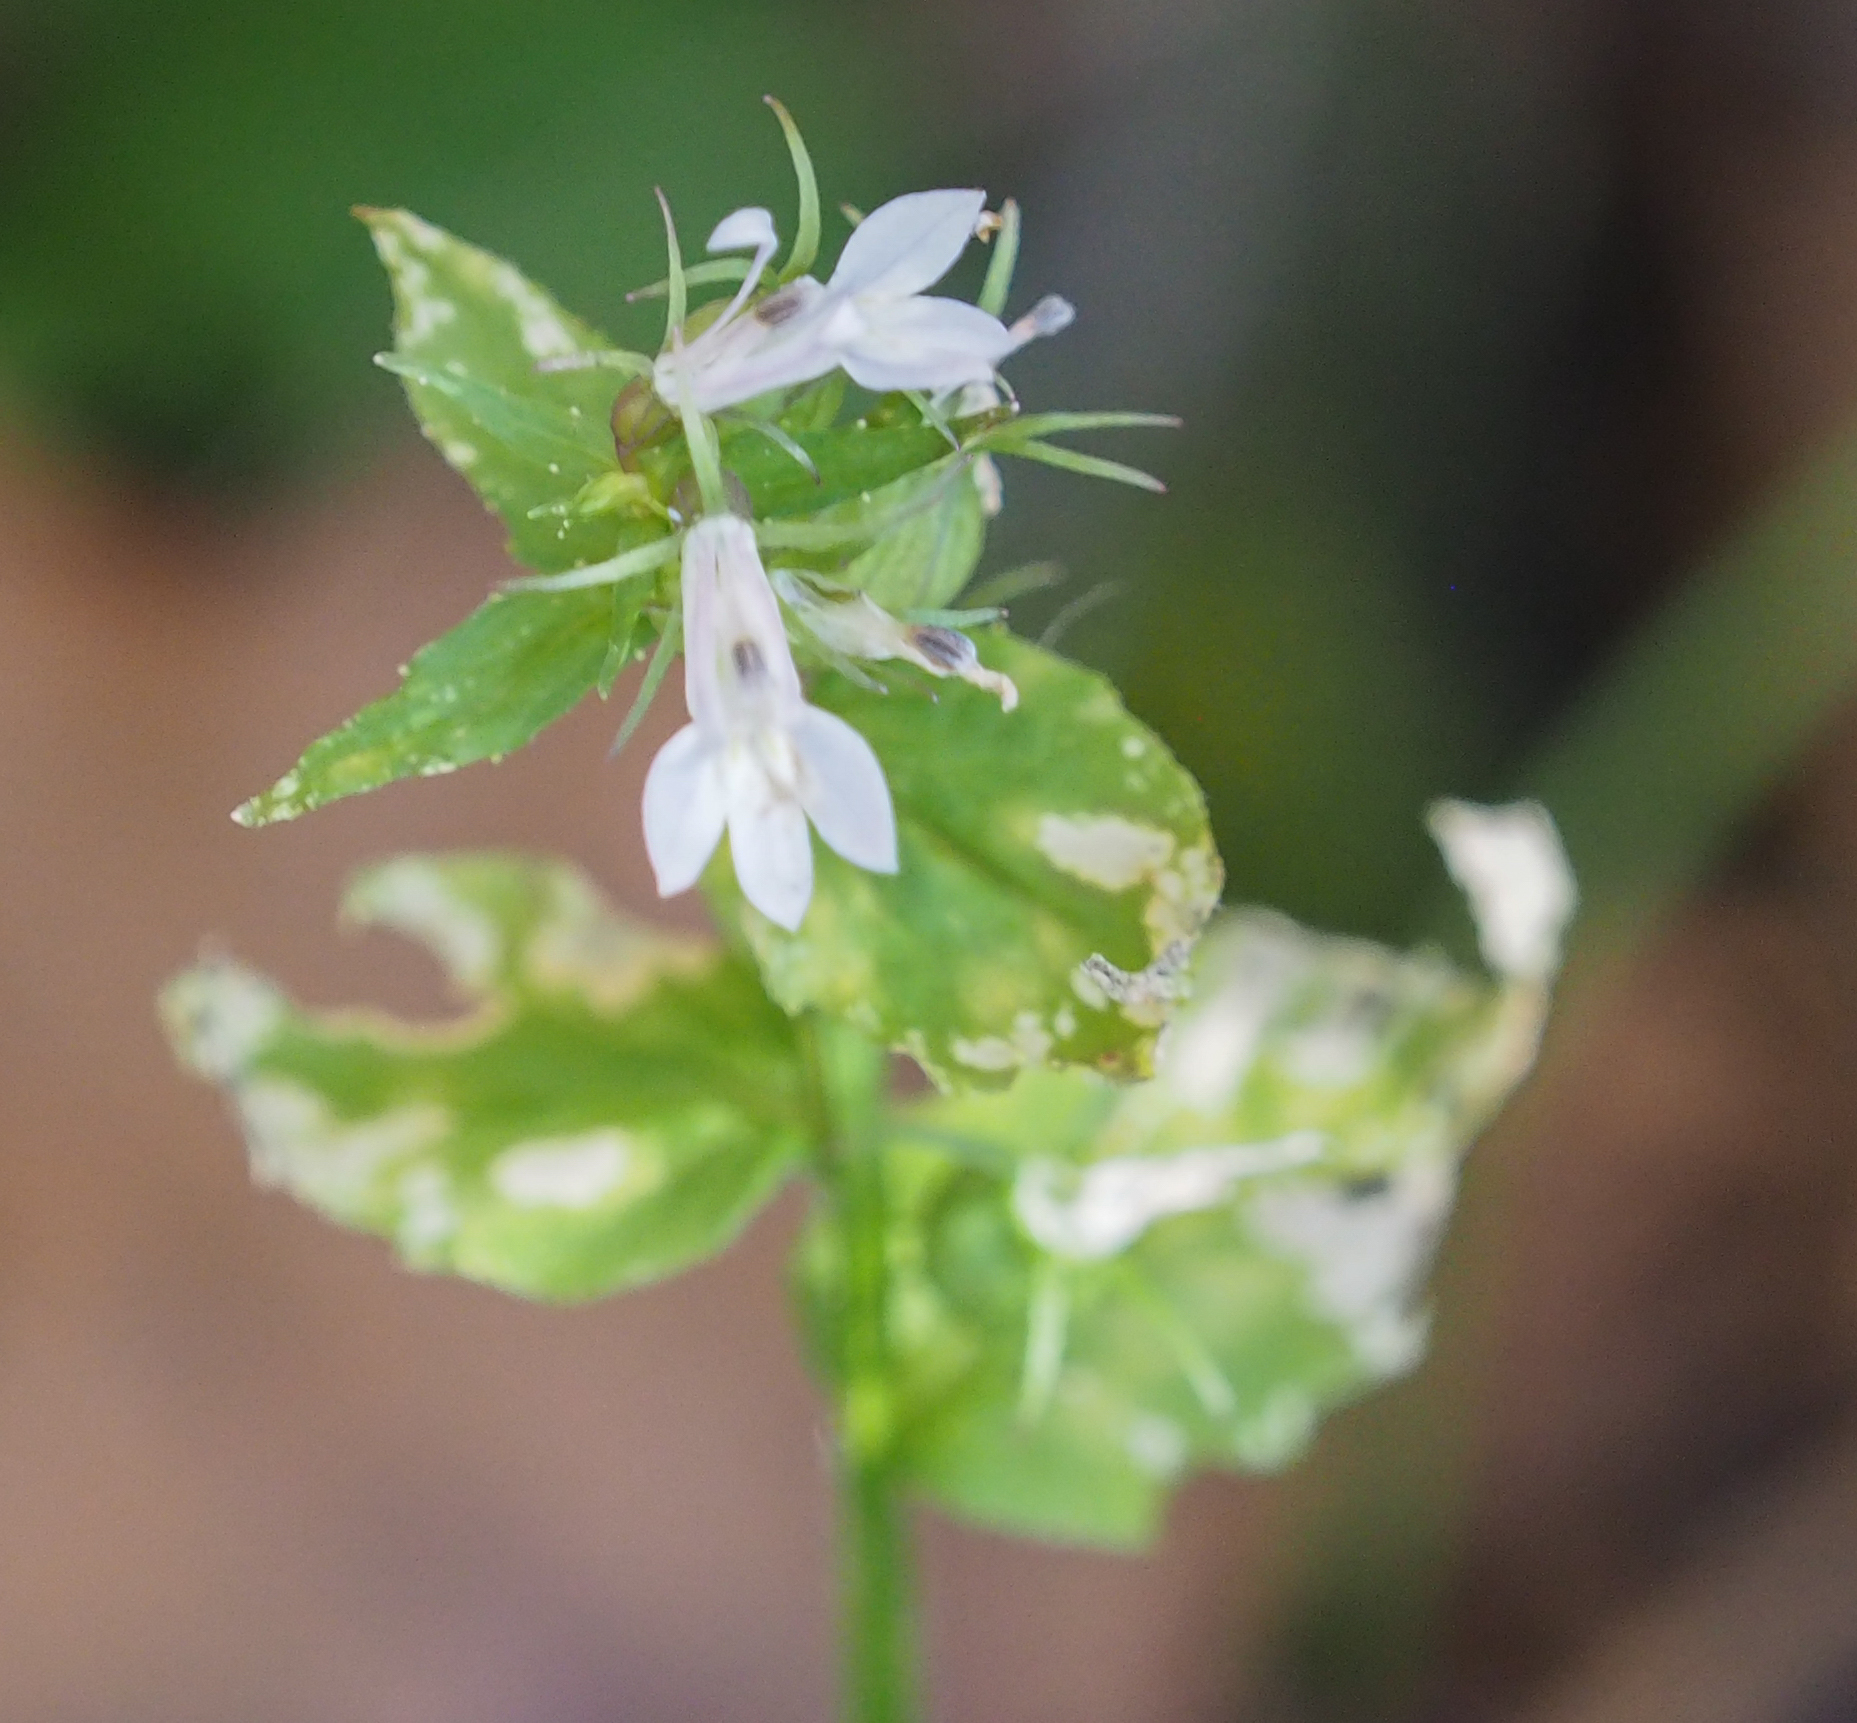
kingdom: Plantae
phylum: Tracheophyta
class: Magnoliopsida
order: Asterales
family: Campanulaceae
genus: Lobelia
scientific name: Lobelia inflata
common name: Indian tobacco
